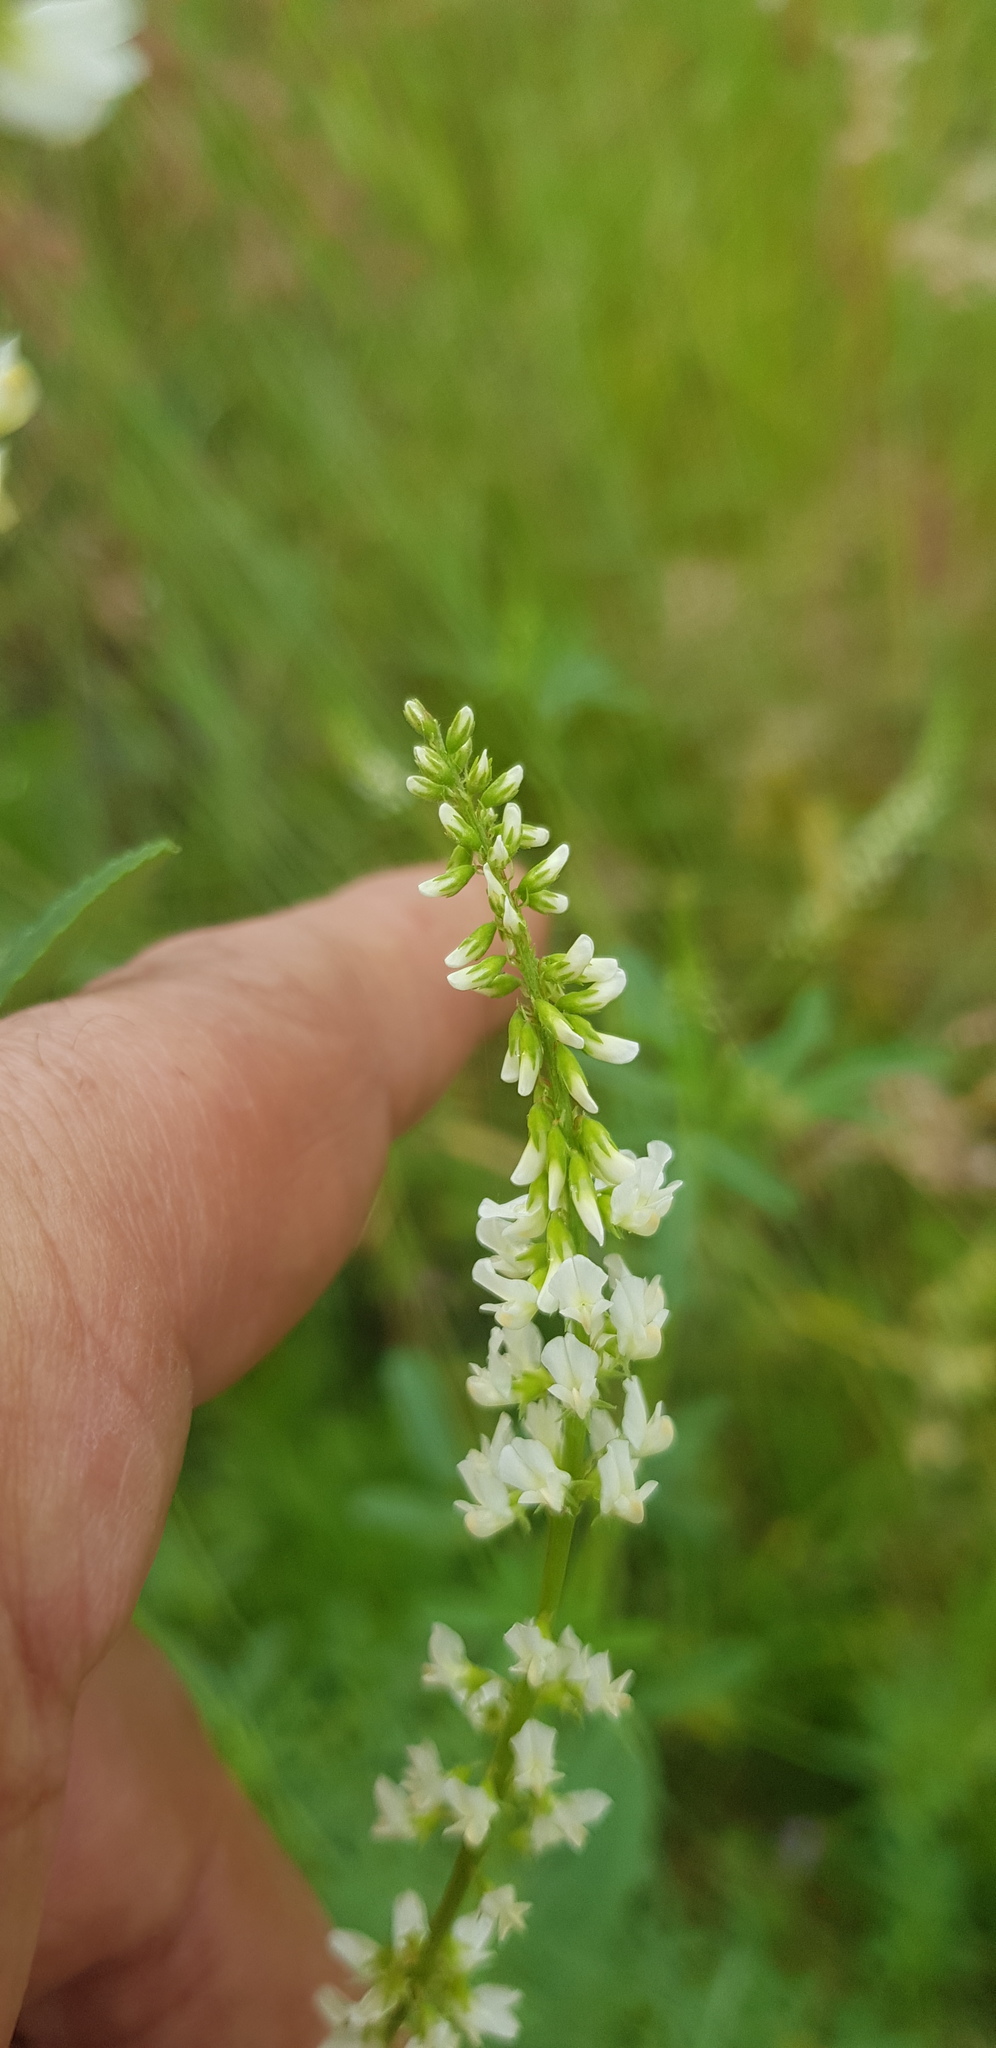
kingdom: Plantae
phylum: Tracheophyta
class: Magnoliopsida
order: Fabales
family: Fabaceae
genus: Melilotus
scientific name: Melilotus albus
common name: White melilot
